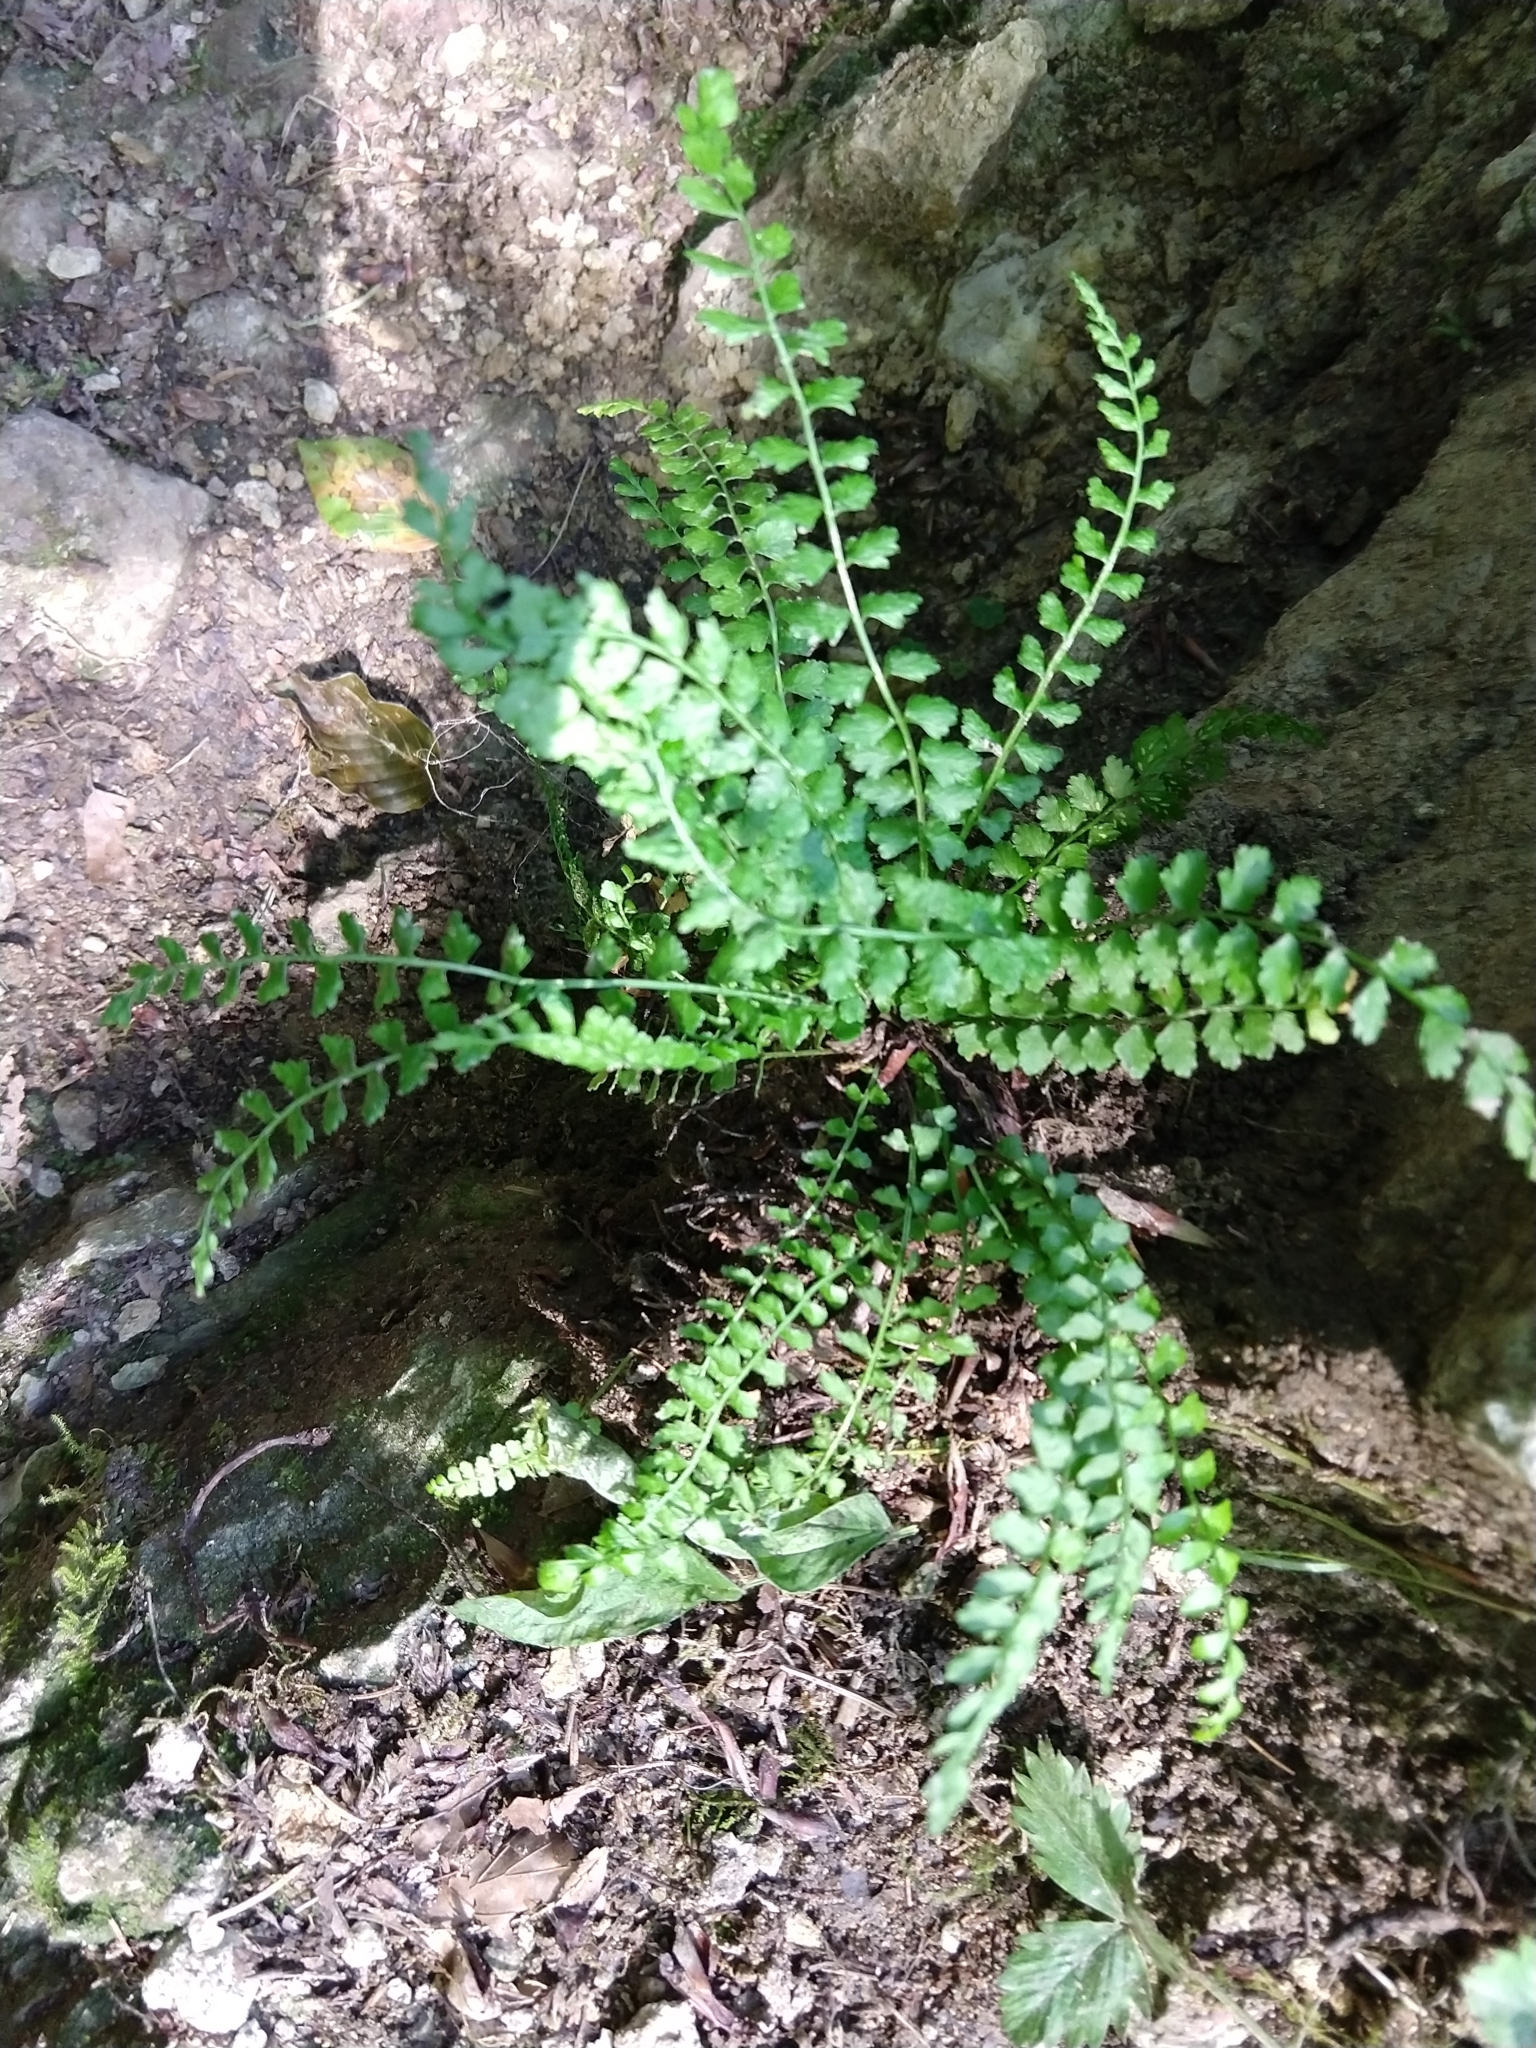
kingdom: Plantae
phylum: Tracheophyta
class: Polypodiopsida
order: Polypodiales
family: Aspleniaceae
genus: Asplenium
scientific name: Asplenium viride
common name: Green spleenwort
